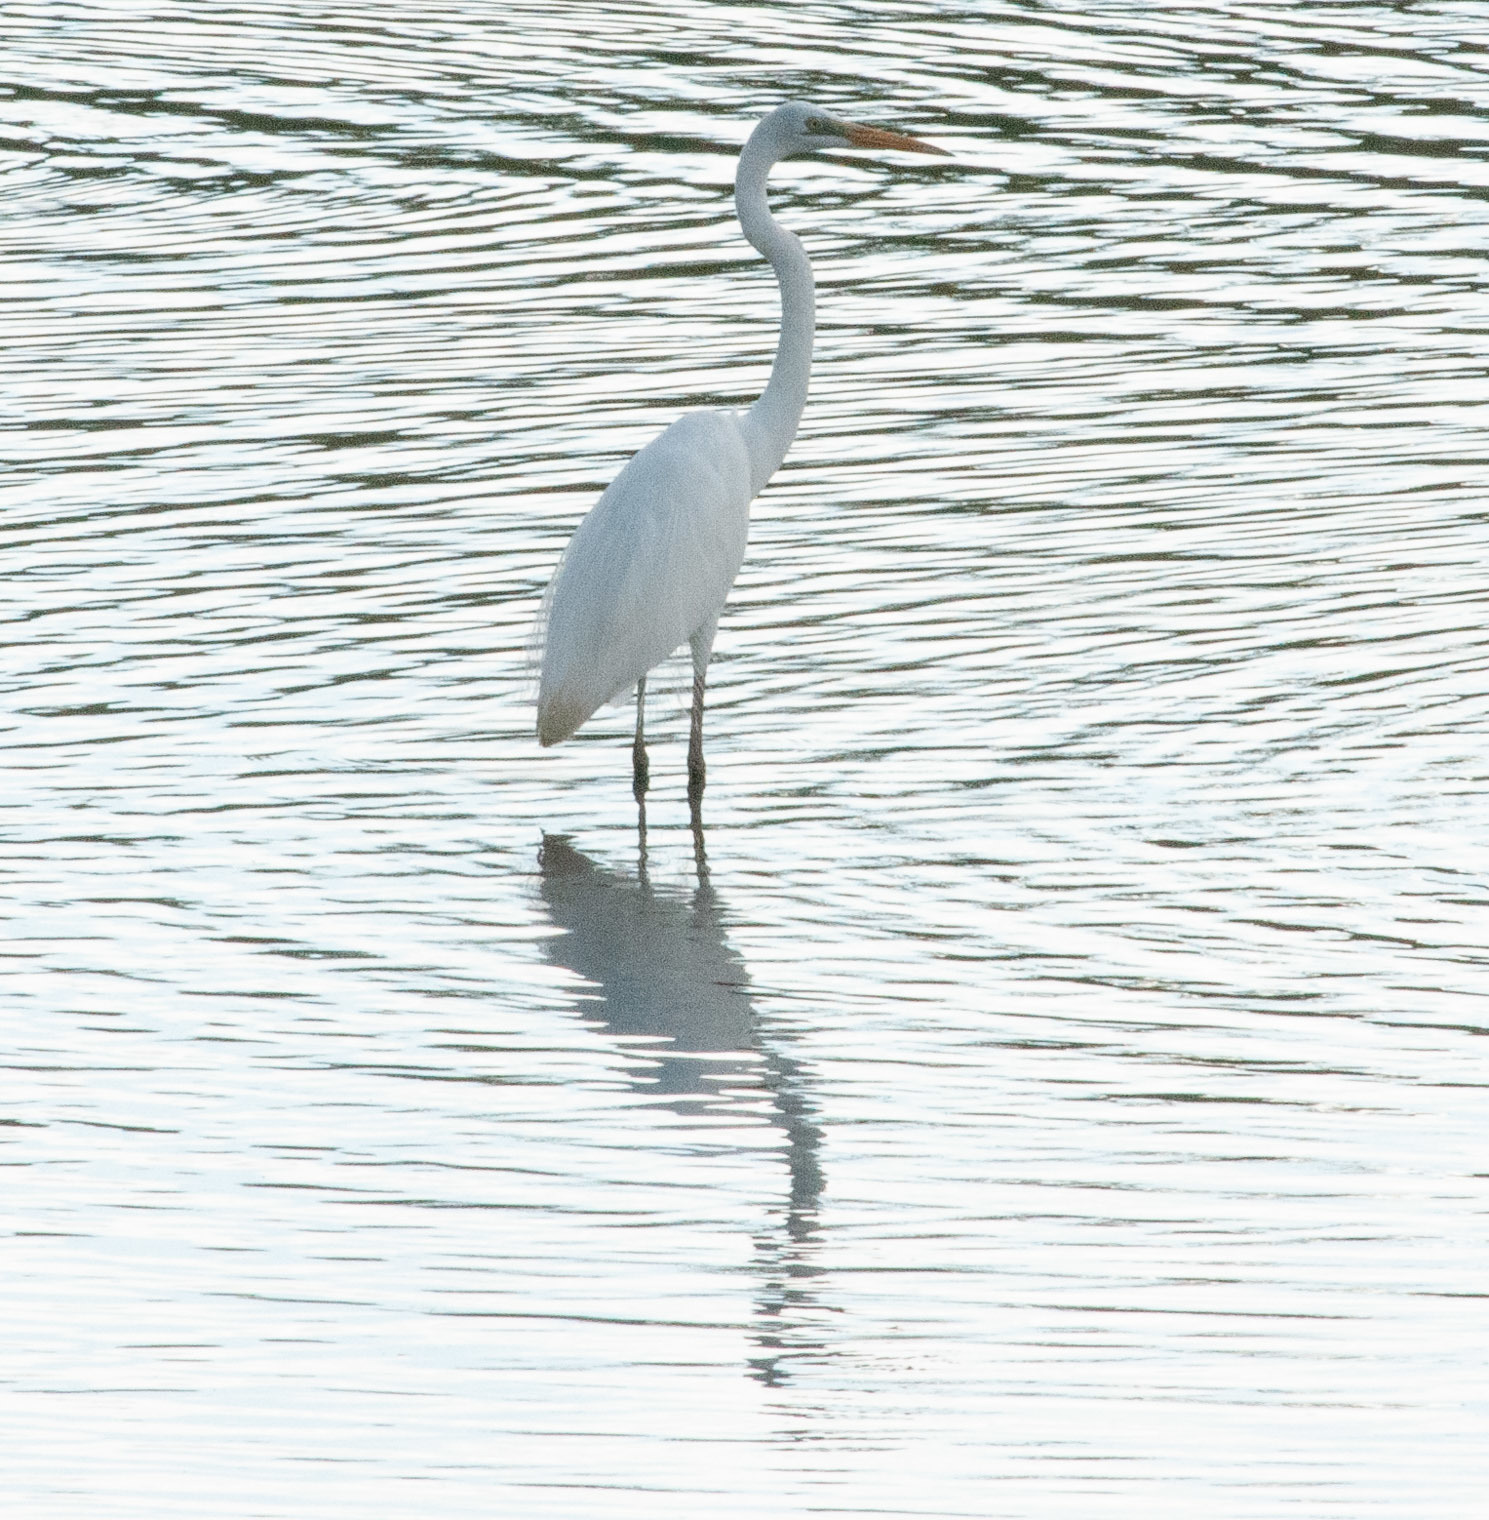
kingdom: Animalia
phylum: Chordata
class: Aves
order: Pelecaniformes
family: Ardeidae
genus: Ardea
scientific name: Ardea alba
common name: Great egret
